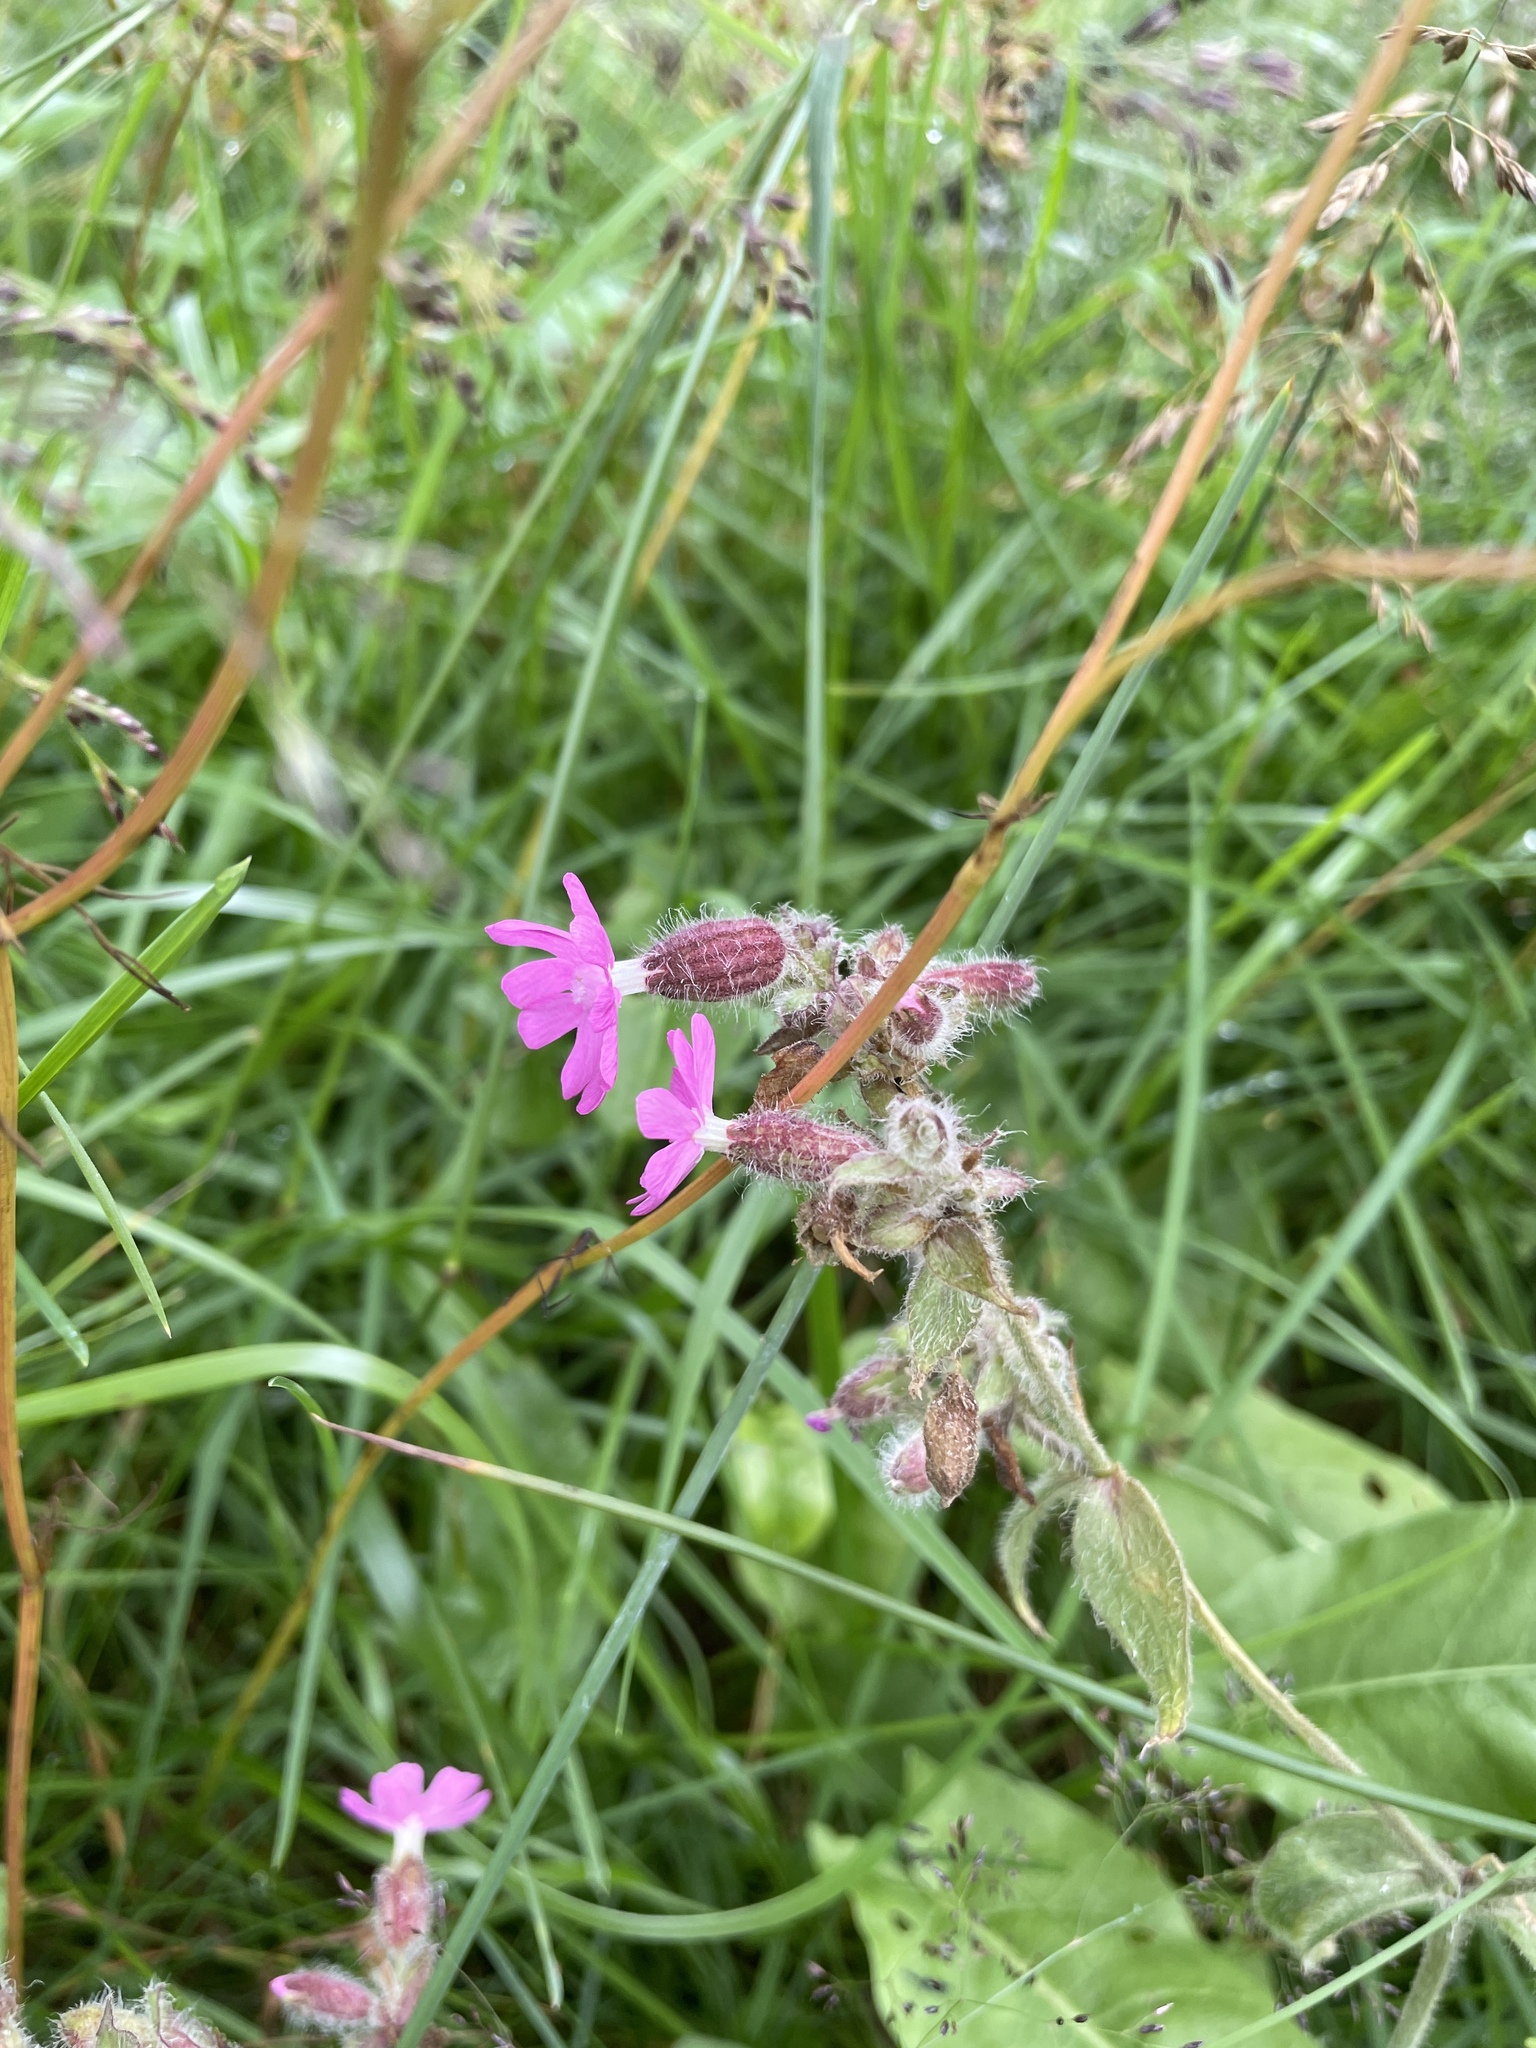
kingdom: Plantae
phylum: Tracheophyta
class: Magnoliopsida
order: Caryophyllales
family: Caryophyllaceae
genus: Silene
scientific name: Silene dioica
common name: Red campion
